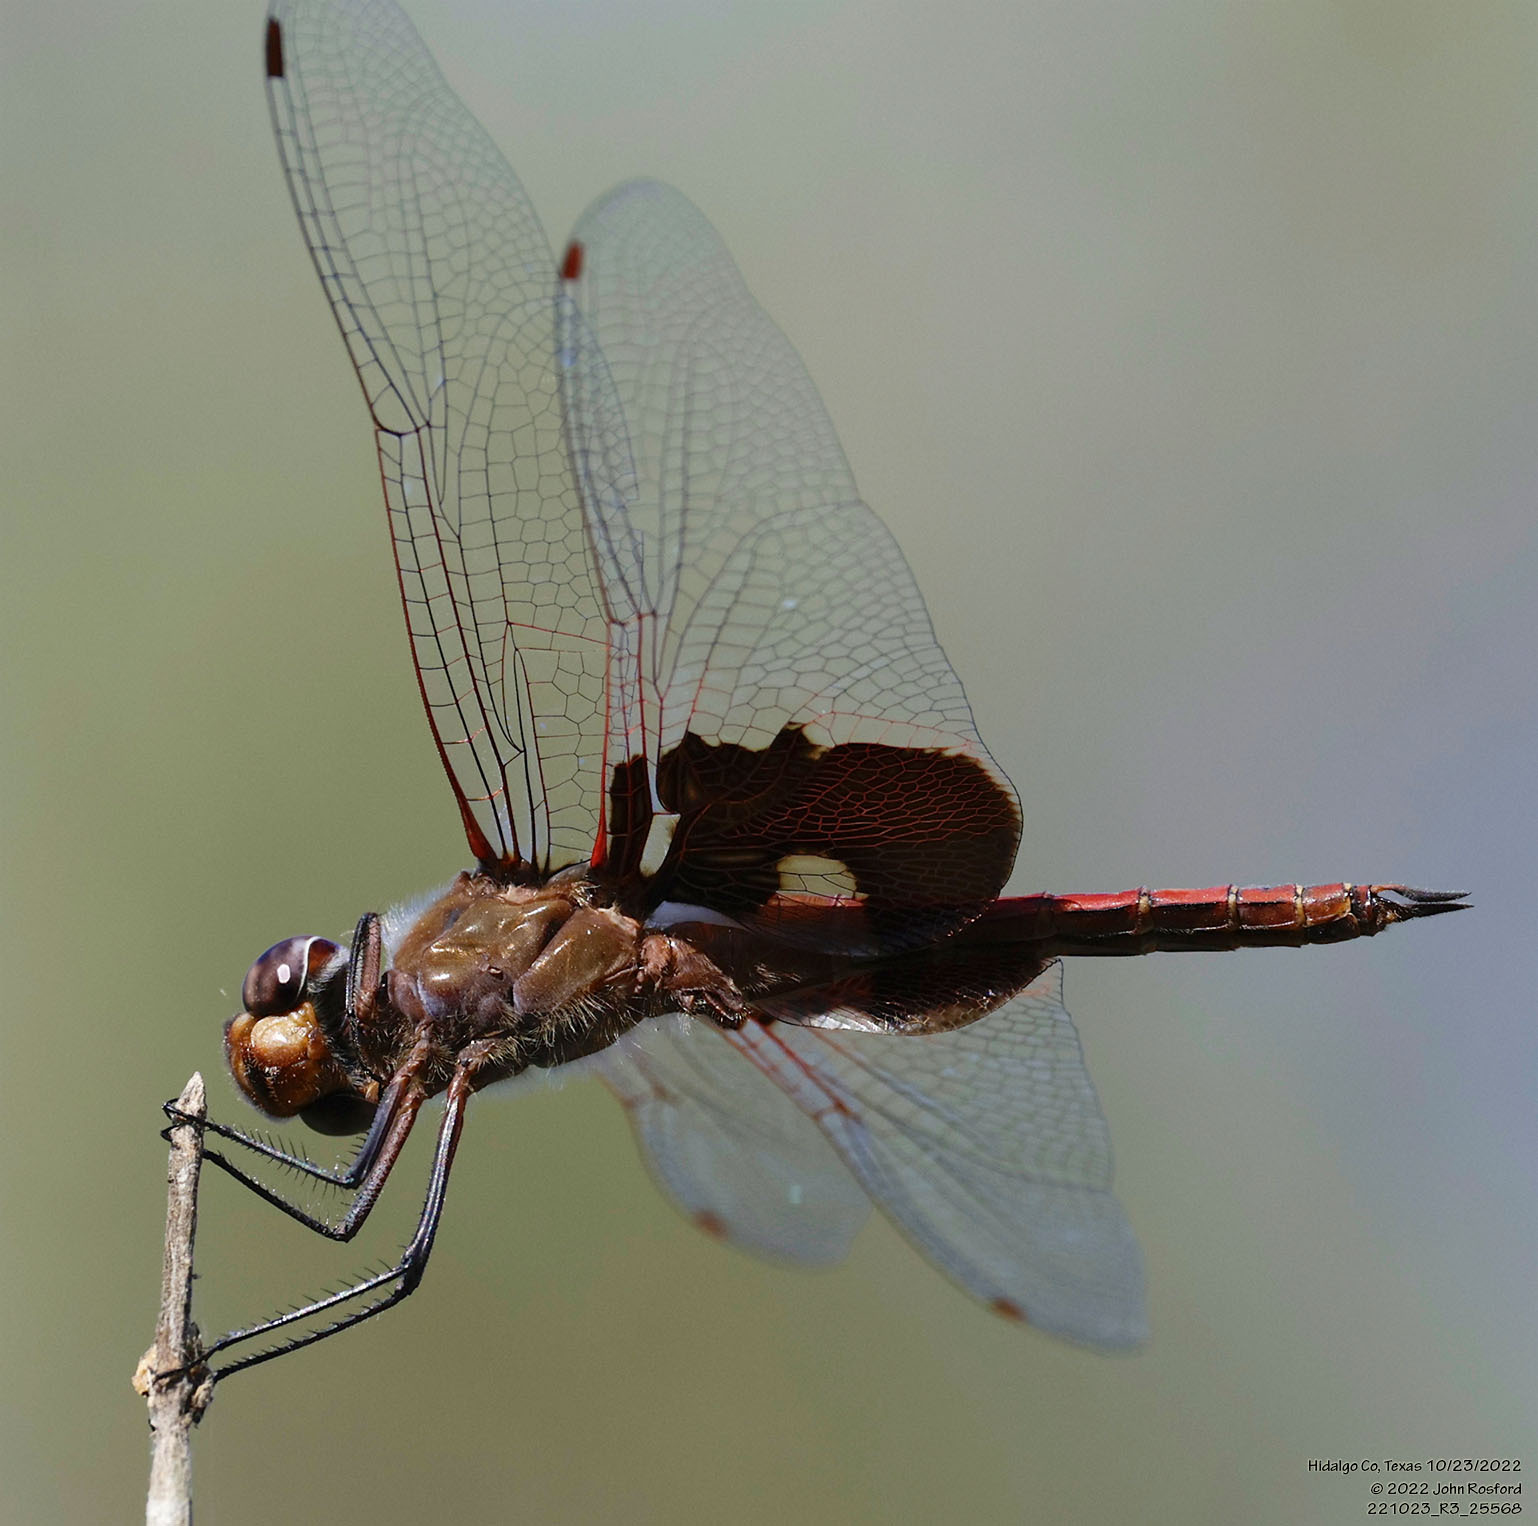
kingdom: Animalia
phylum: Arthropoda
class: Insecta
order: Odonata
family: Libellulidae
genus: Tramea
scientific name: Tramea onusta
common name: Red saddlebags
